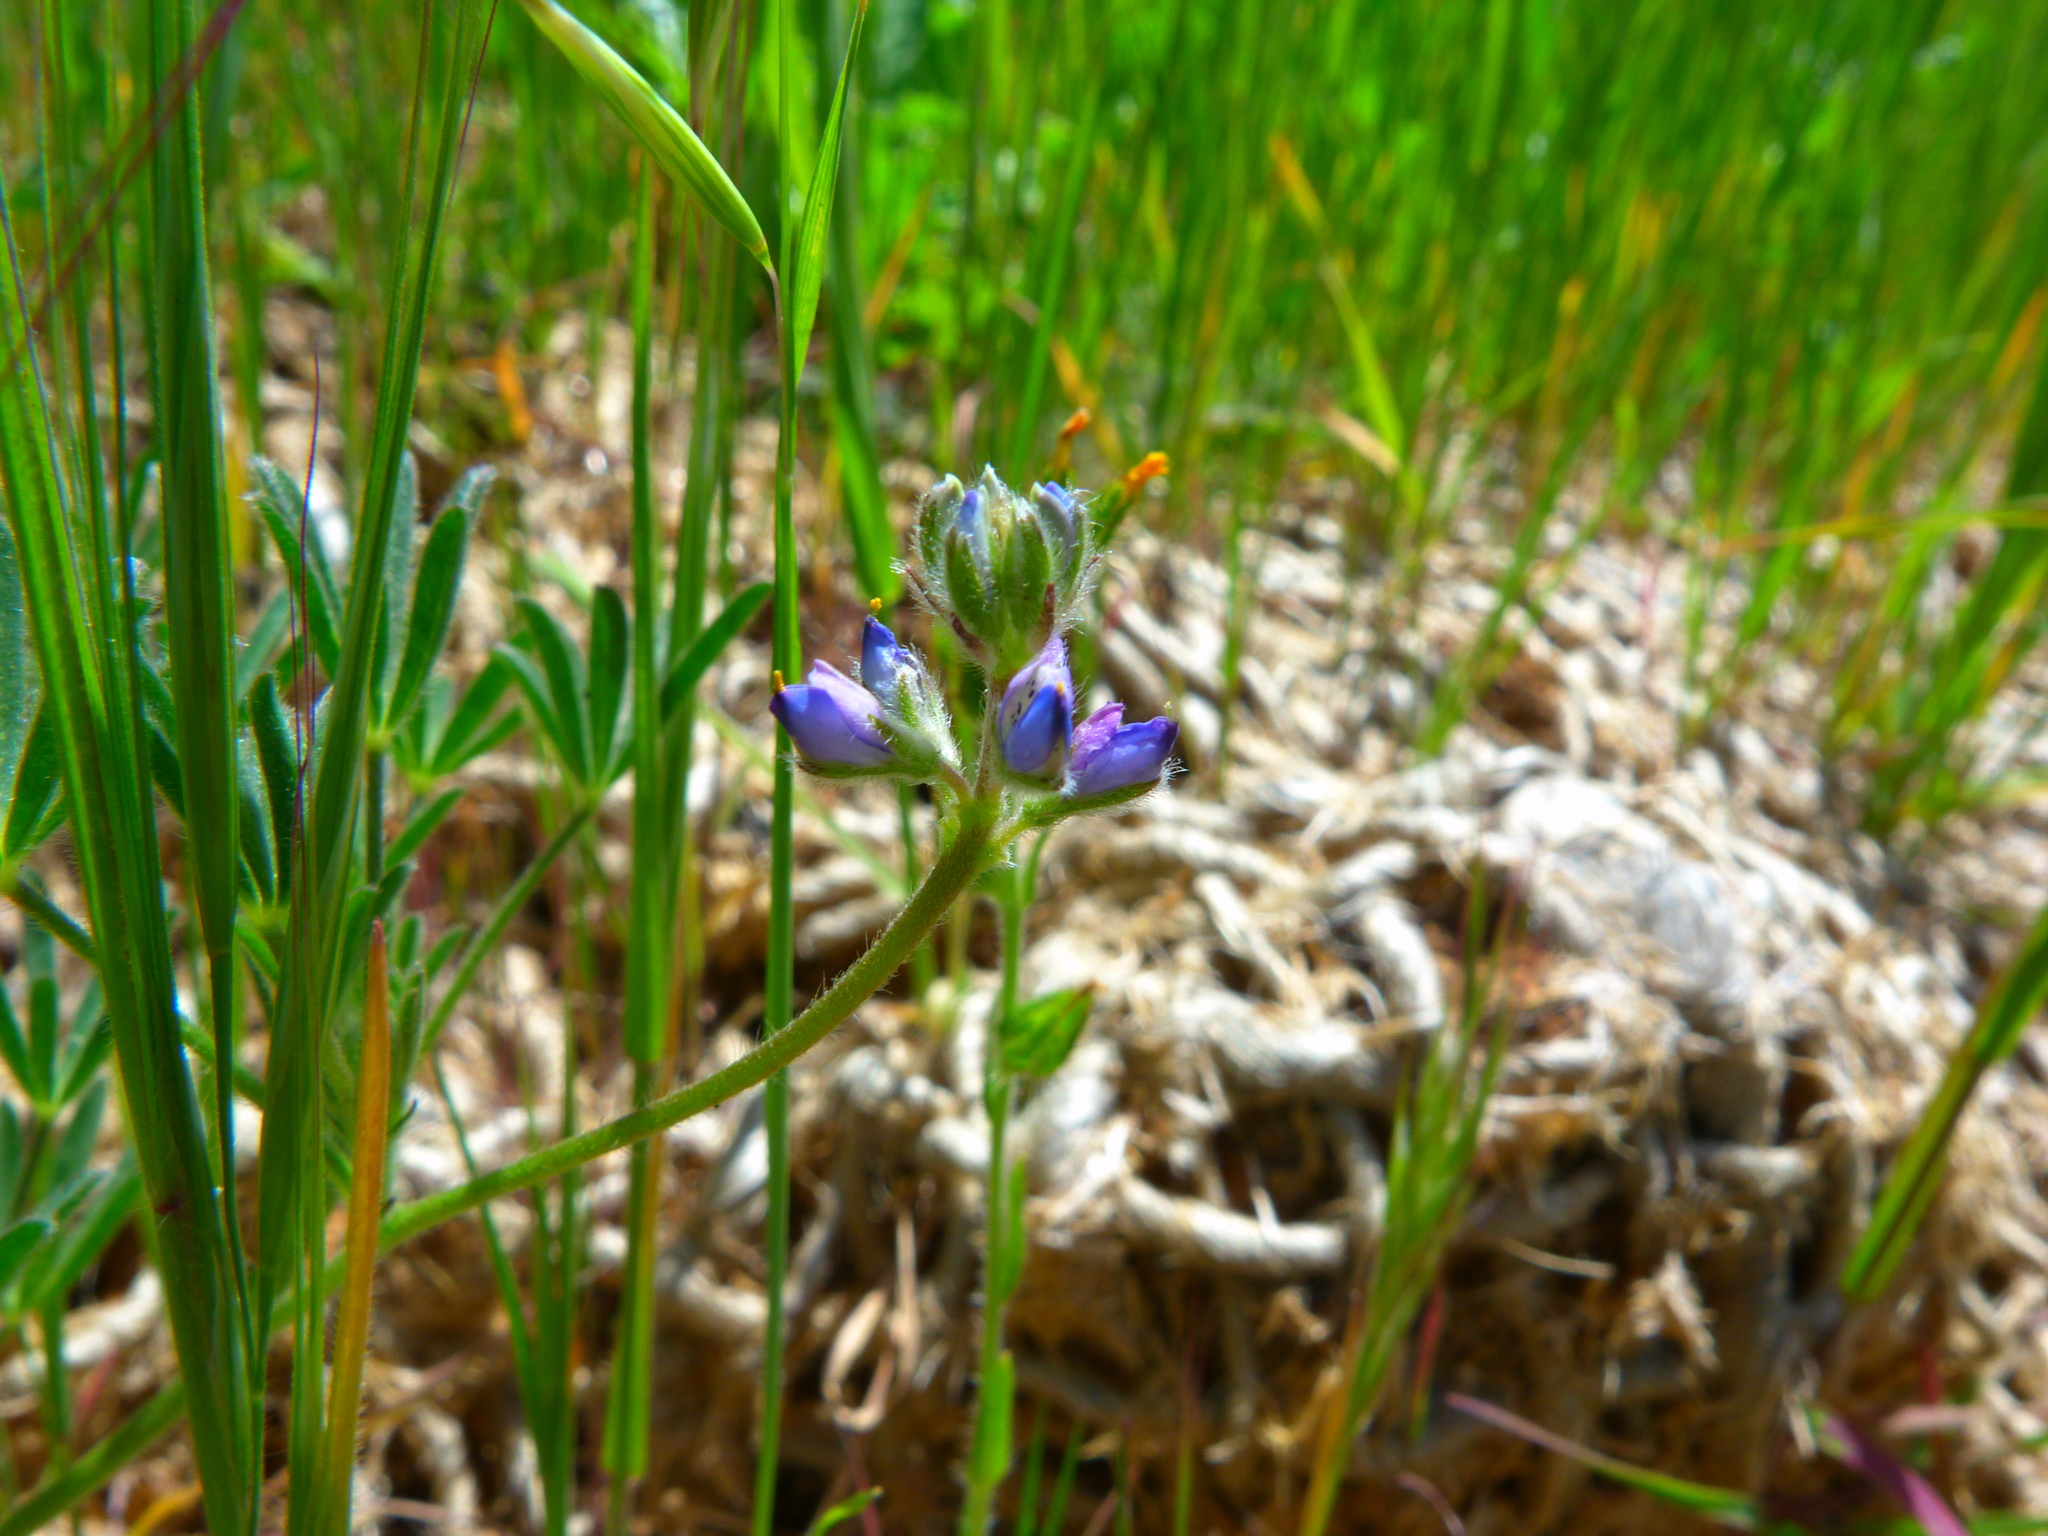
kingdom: Plantae
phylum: Tracheophyta
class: Magnoliopsida
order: Fabales
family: Fabaceae
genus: Lupinus
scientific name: Lupinus bicolor
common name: Miniature lupine
